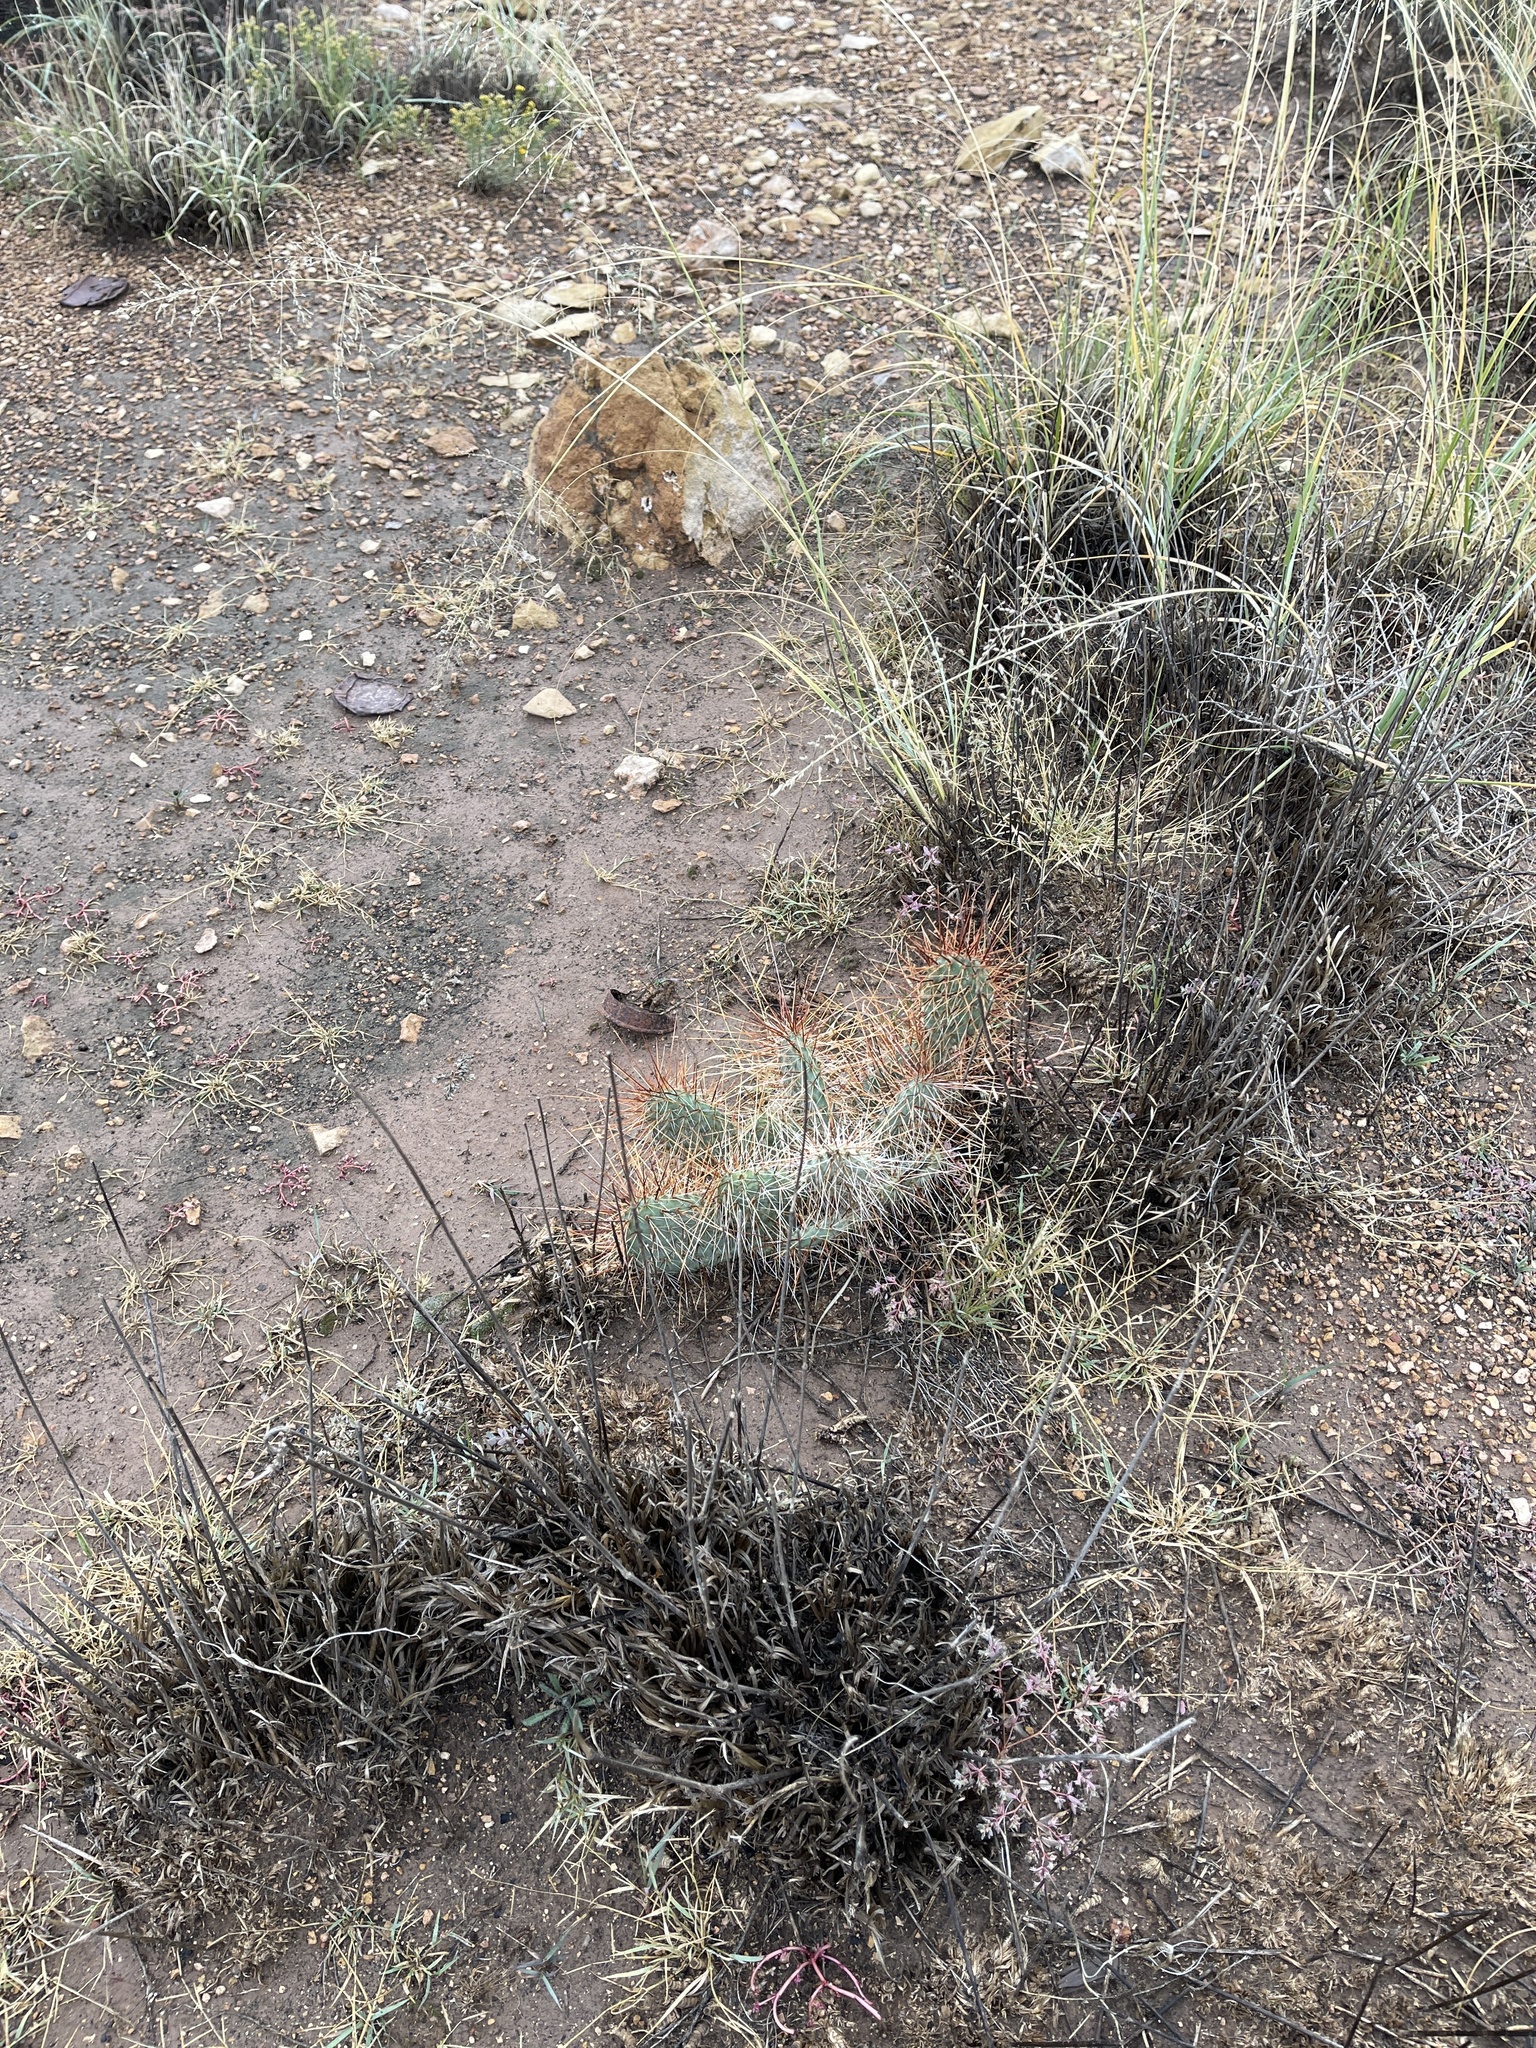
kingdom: Plantae
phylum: Tracheophyta
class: Magnoliopsida
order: Caryophyllales
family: Cactaceae
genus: Opuntia
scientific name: Opuntia polyacantha
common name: Plains prickly-pear
